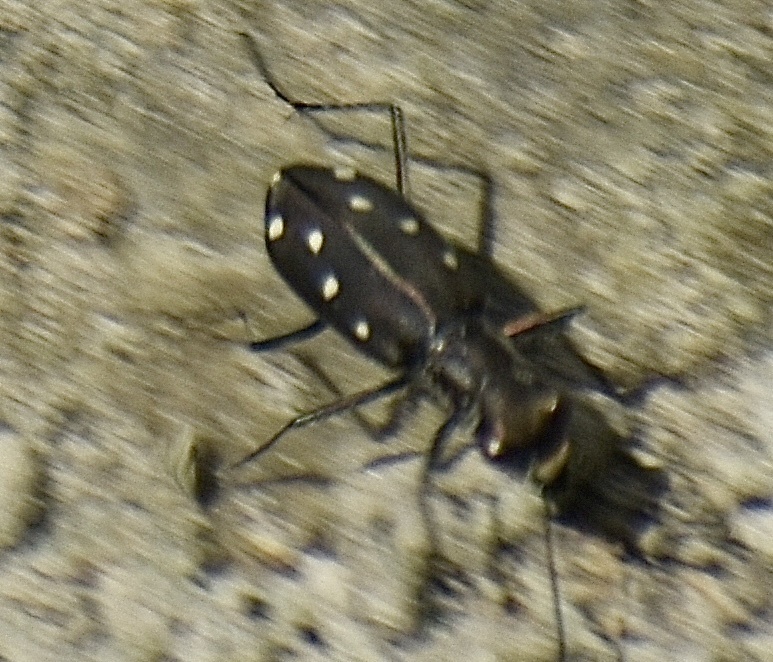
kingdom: Animalia
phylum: Arthropoda
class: Insecta
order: Coleoptera
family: Carabidae
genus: Cicindela
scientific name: Cicindela ocellata
